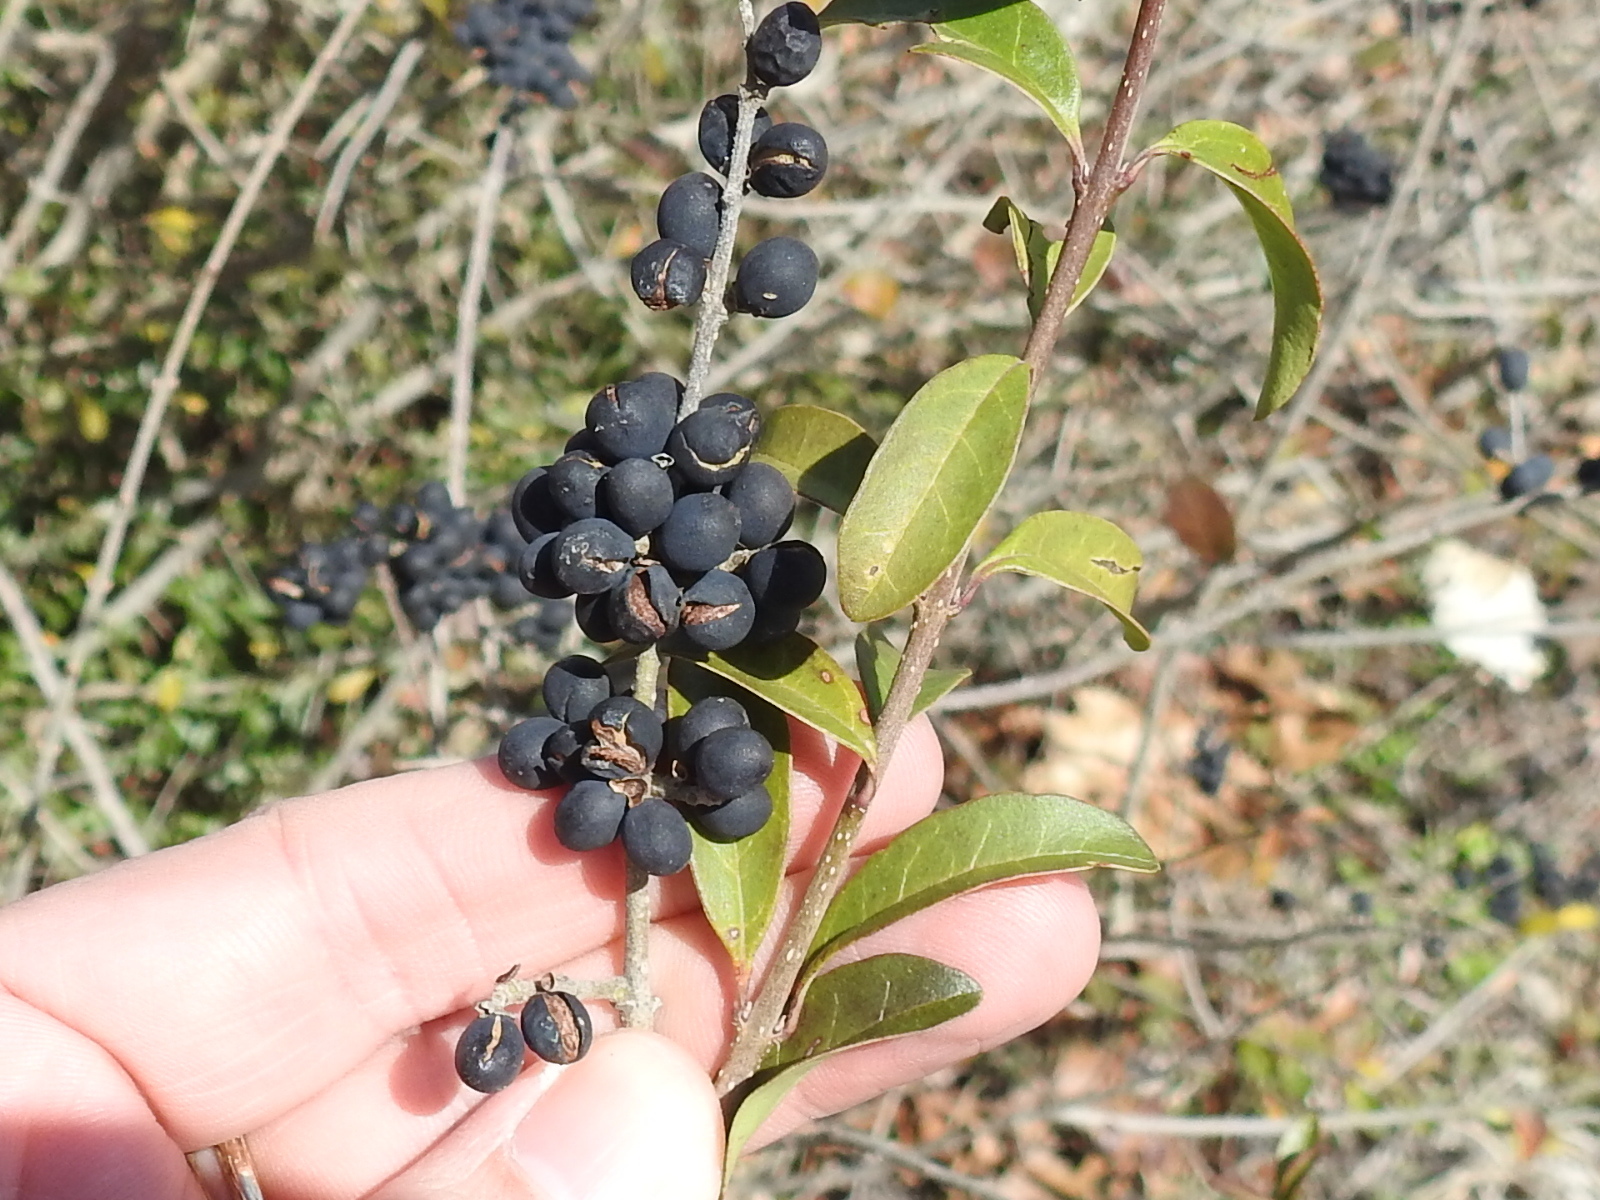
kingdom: Plantae
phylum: Tracheophyta
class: Magnoliopsida
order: Lamiales
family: Oleaceae
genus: Ligustrum
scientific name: Ligustrum quihoui
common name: Waxyleaf privet
